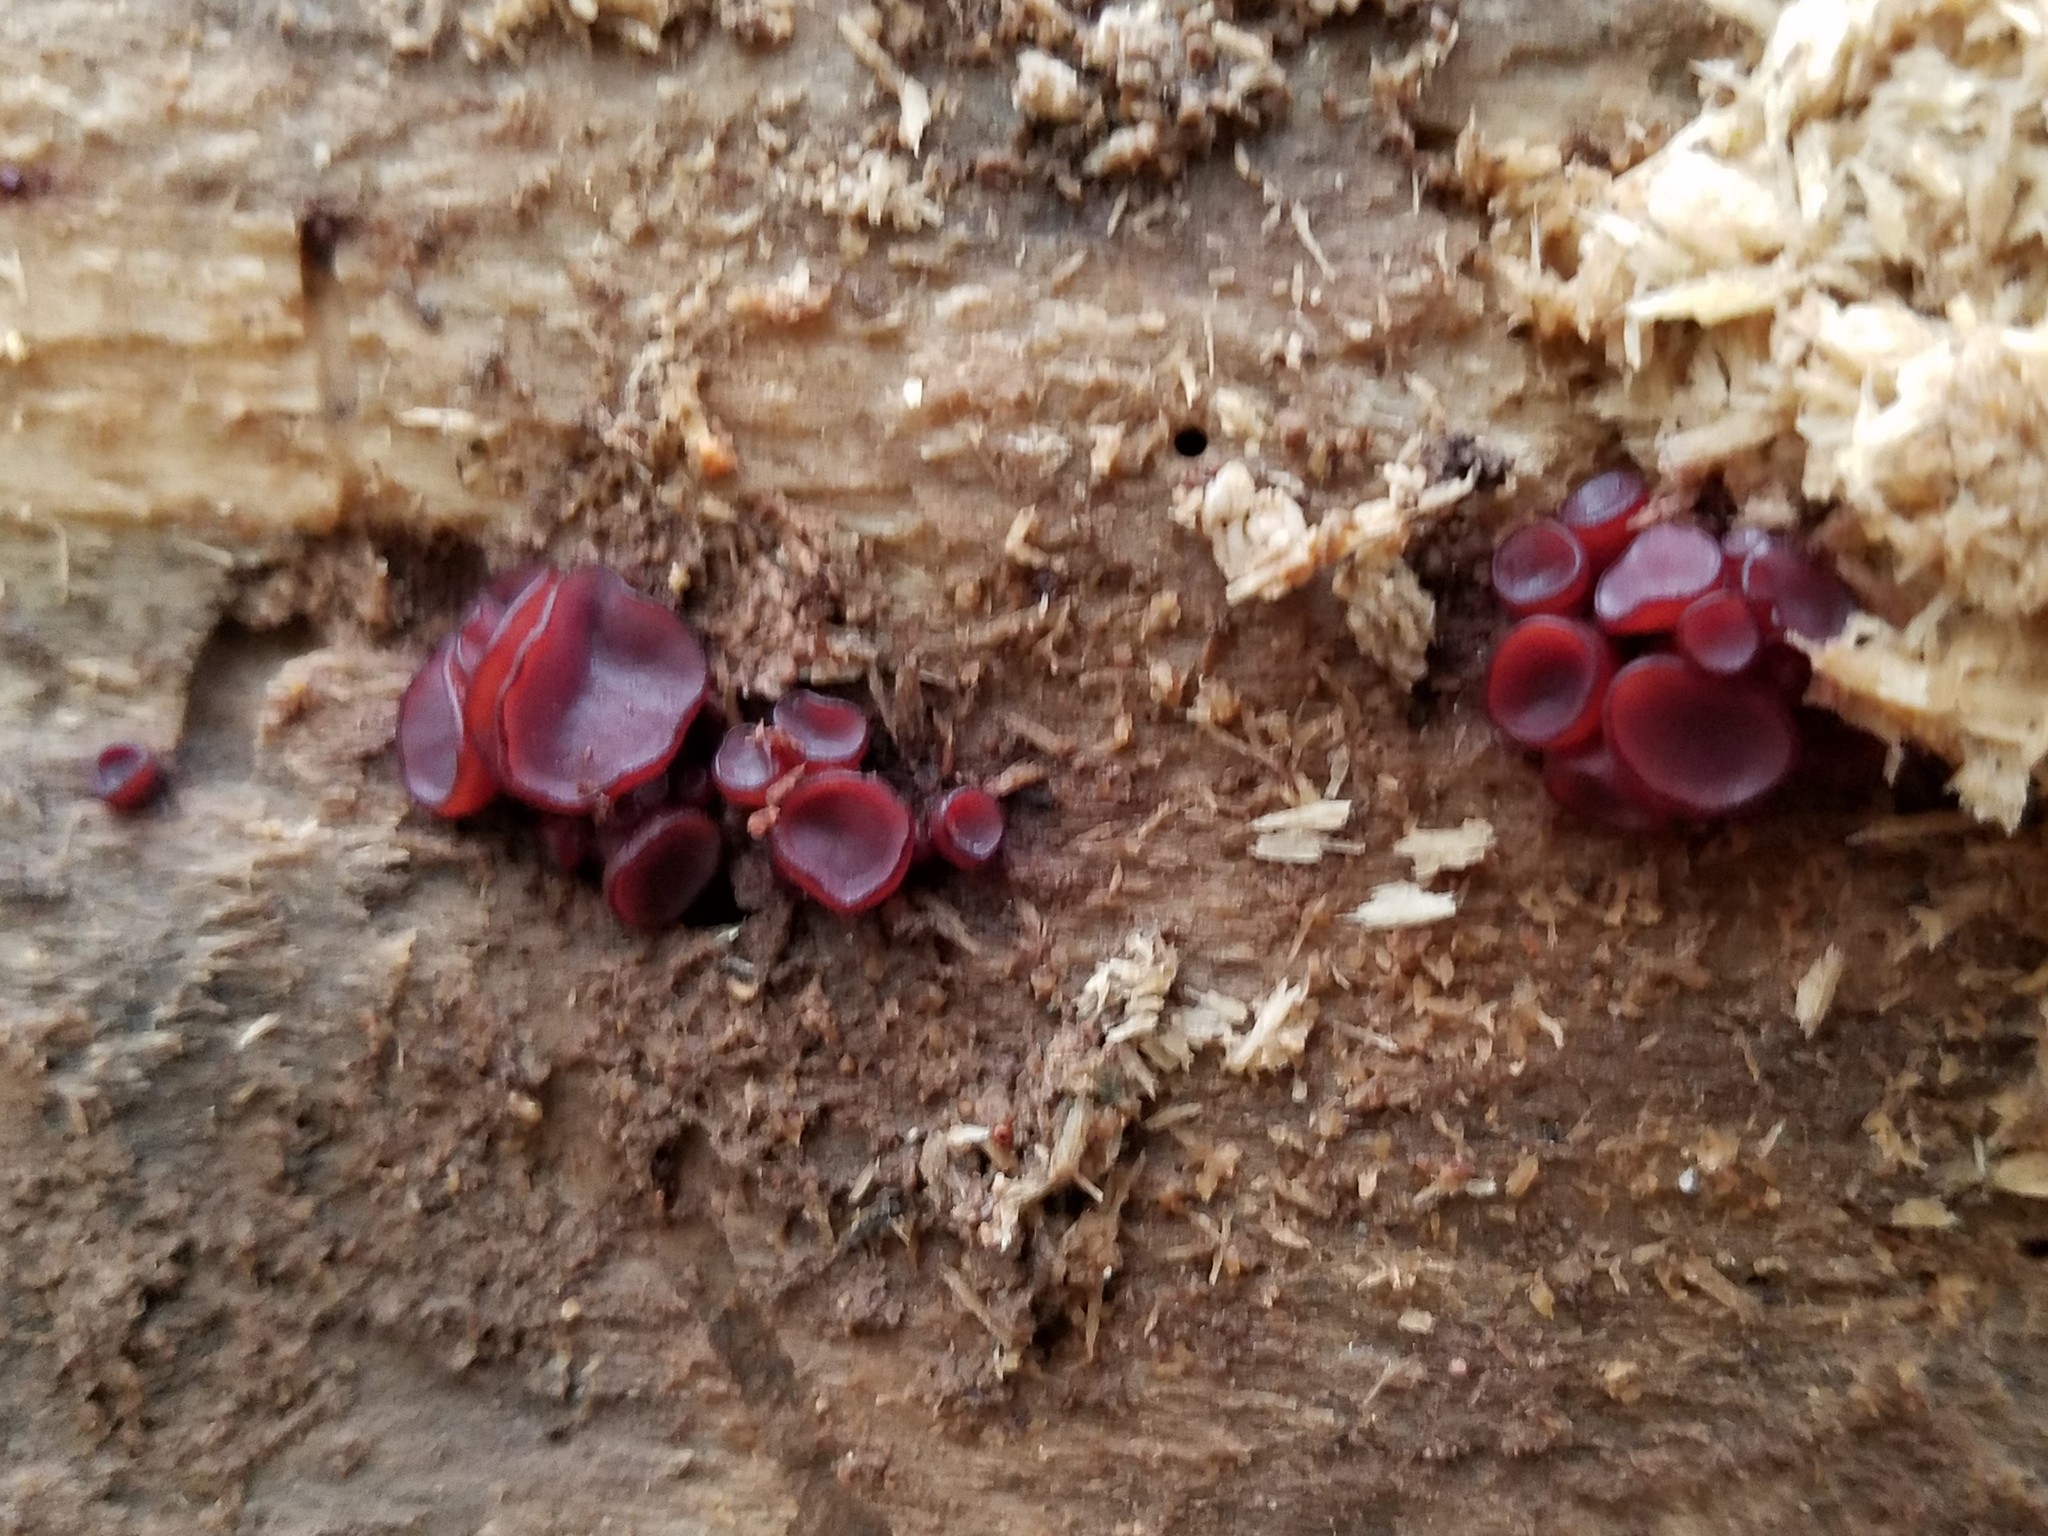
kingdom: Fungi
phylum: Ascomycota
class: Leotiomycetes
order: Helotiales
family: Gelatinodiscaceae
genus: Ascocoryne
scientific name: Ascocoryne sarcoides
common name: Purple jellydisc
